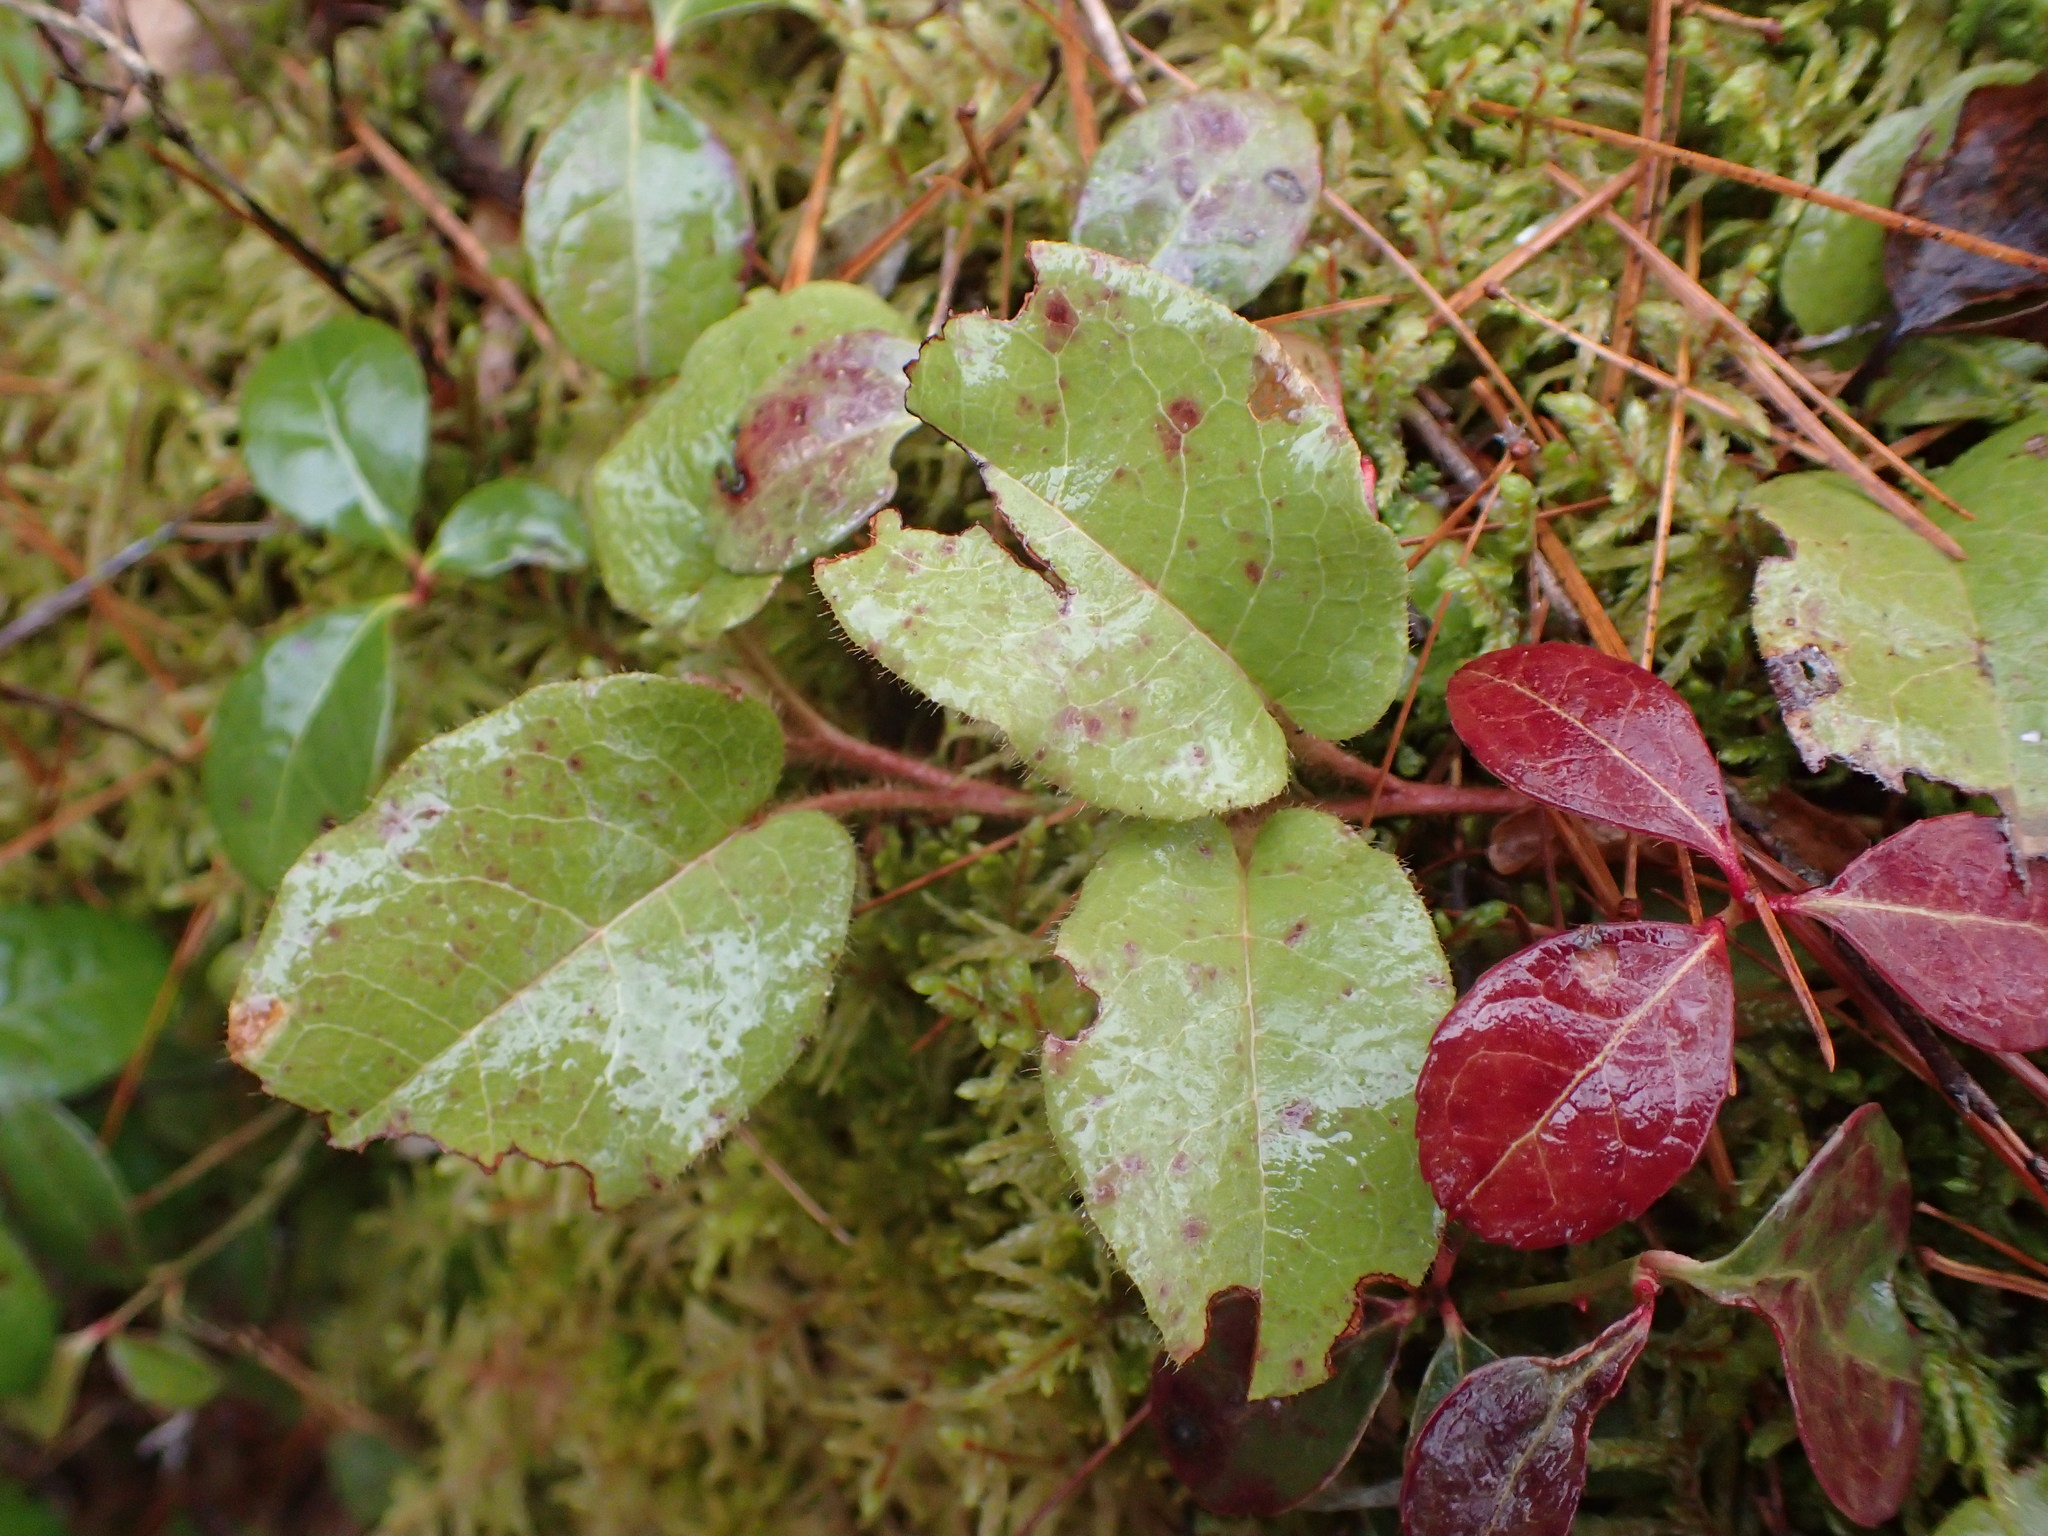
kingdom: Plantae
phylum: Tracheophyta
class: Magnoliopsida
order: Ericales
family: Ericaceae
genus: Epigaea
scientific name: Epigaea repens
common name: Gravelroot
